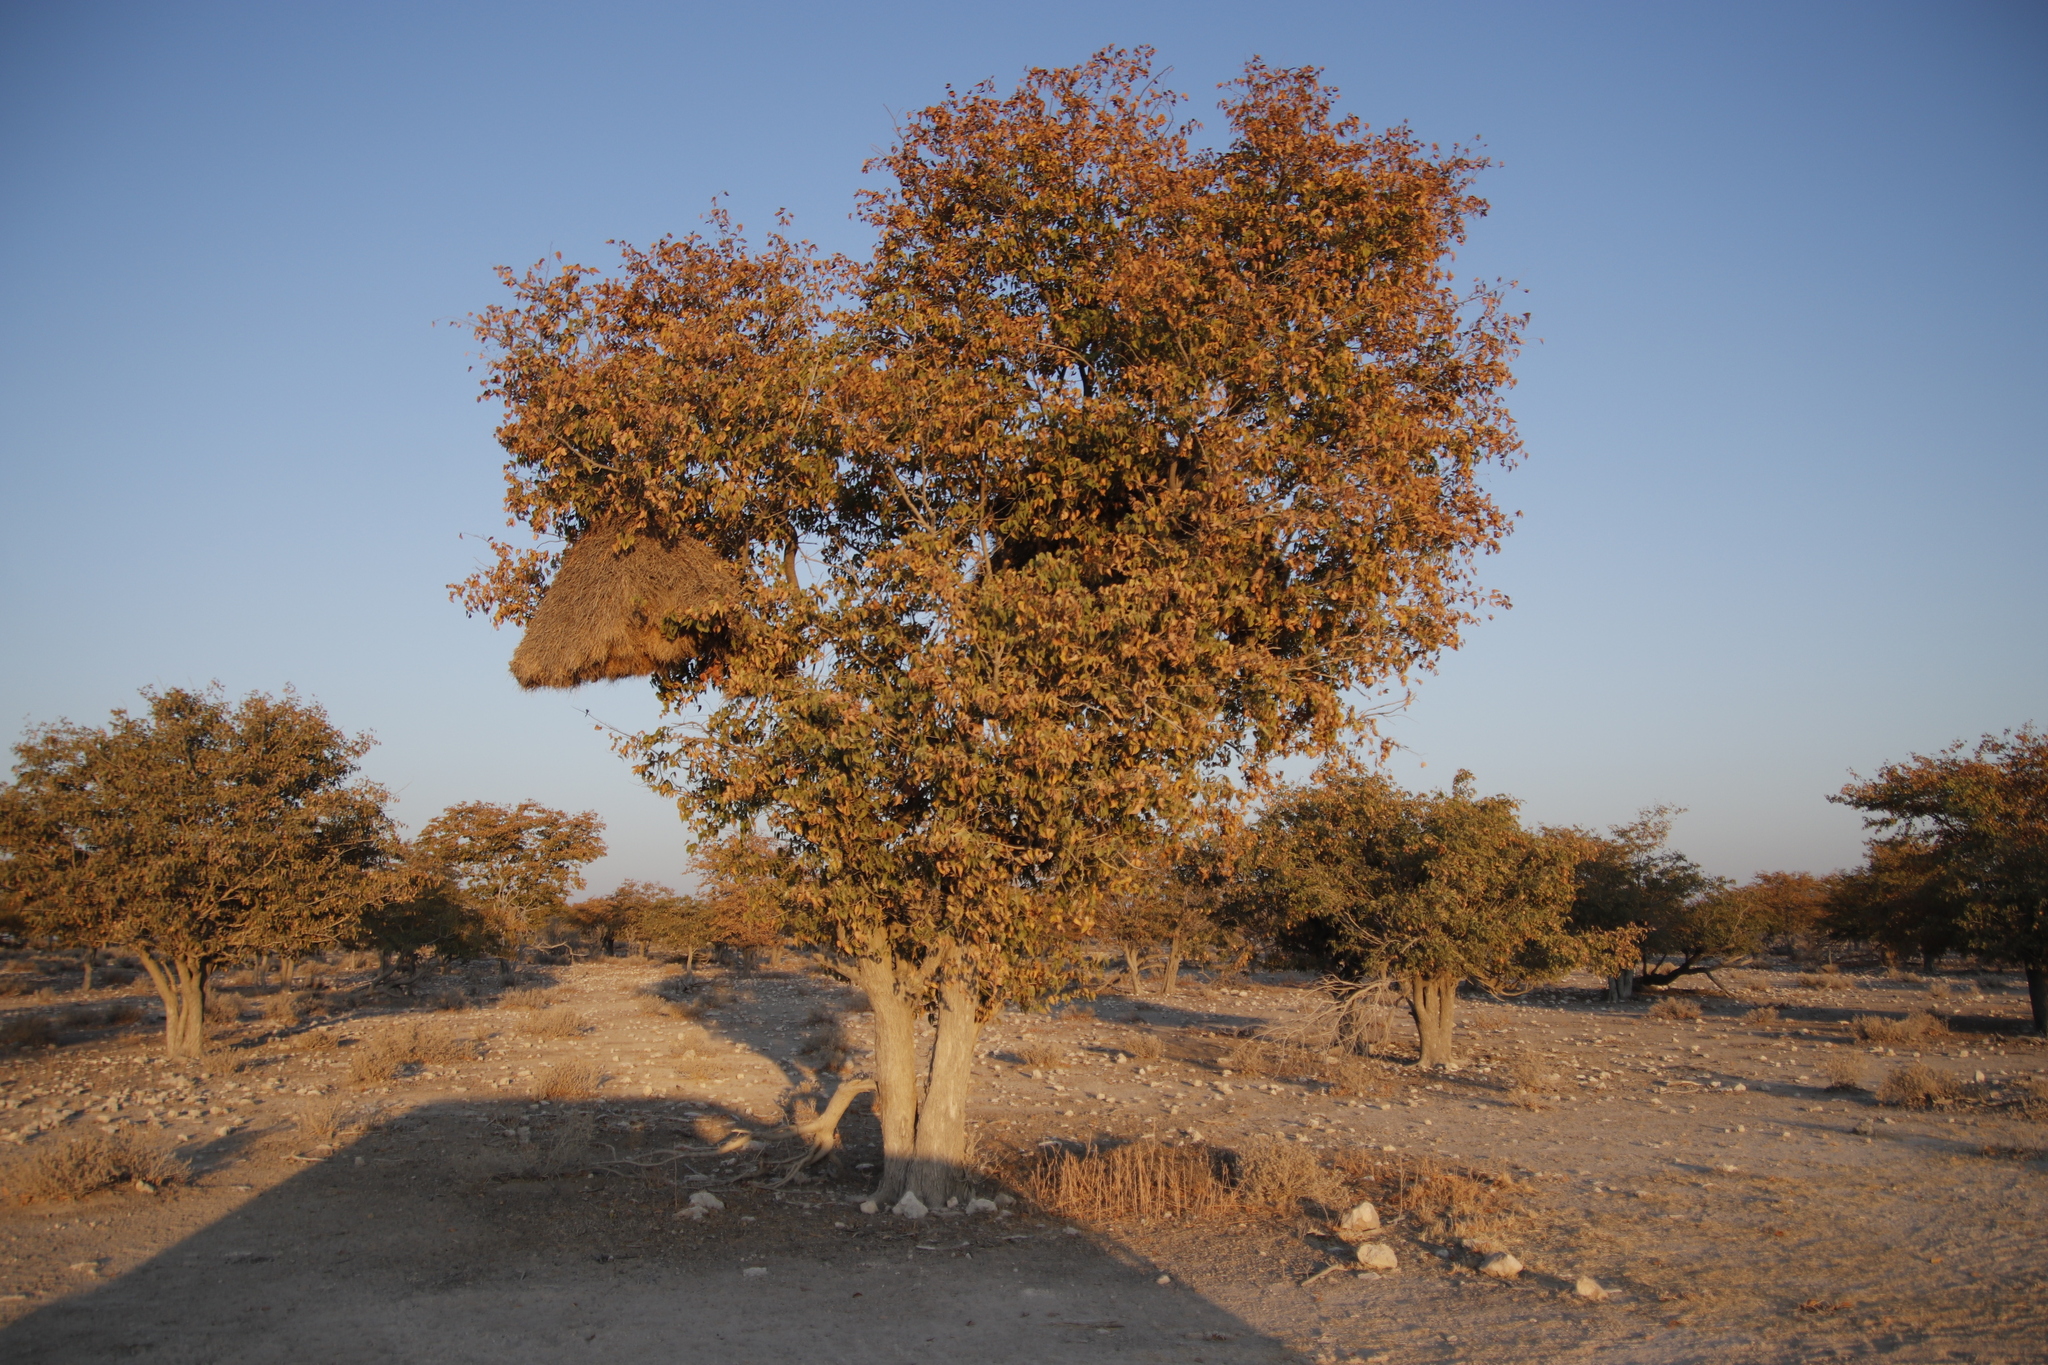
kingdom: Plantae
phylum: Tracheophyta
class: Magnoliopsida
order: Fabales
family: Fabaceae
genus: Colophospermum
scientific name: Colophospermum mopane
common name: Mopane
